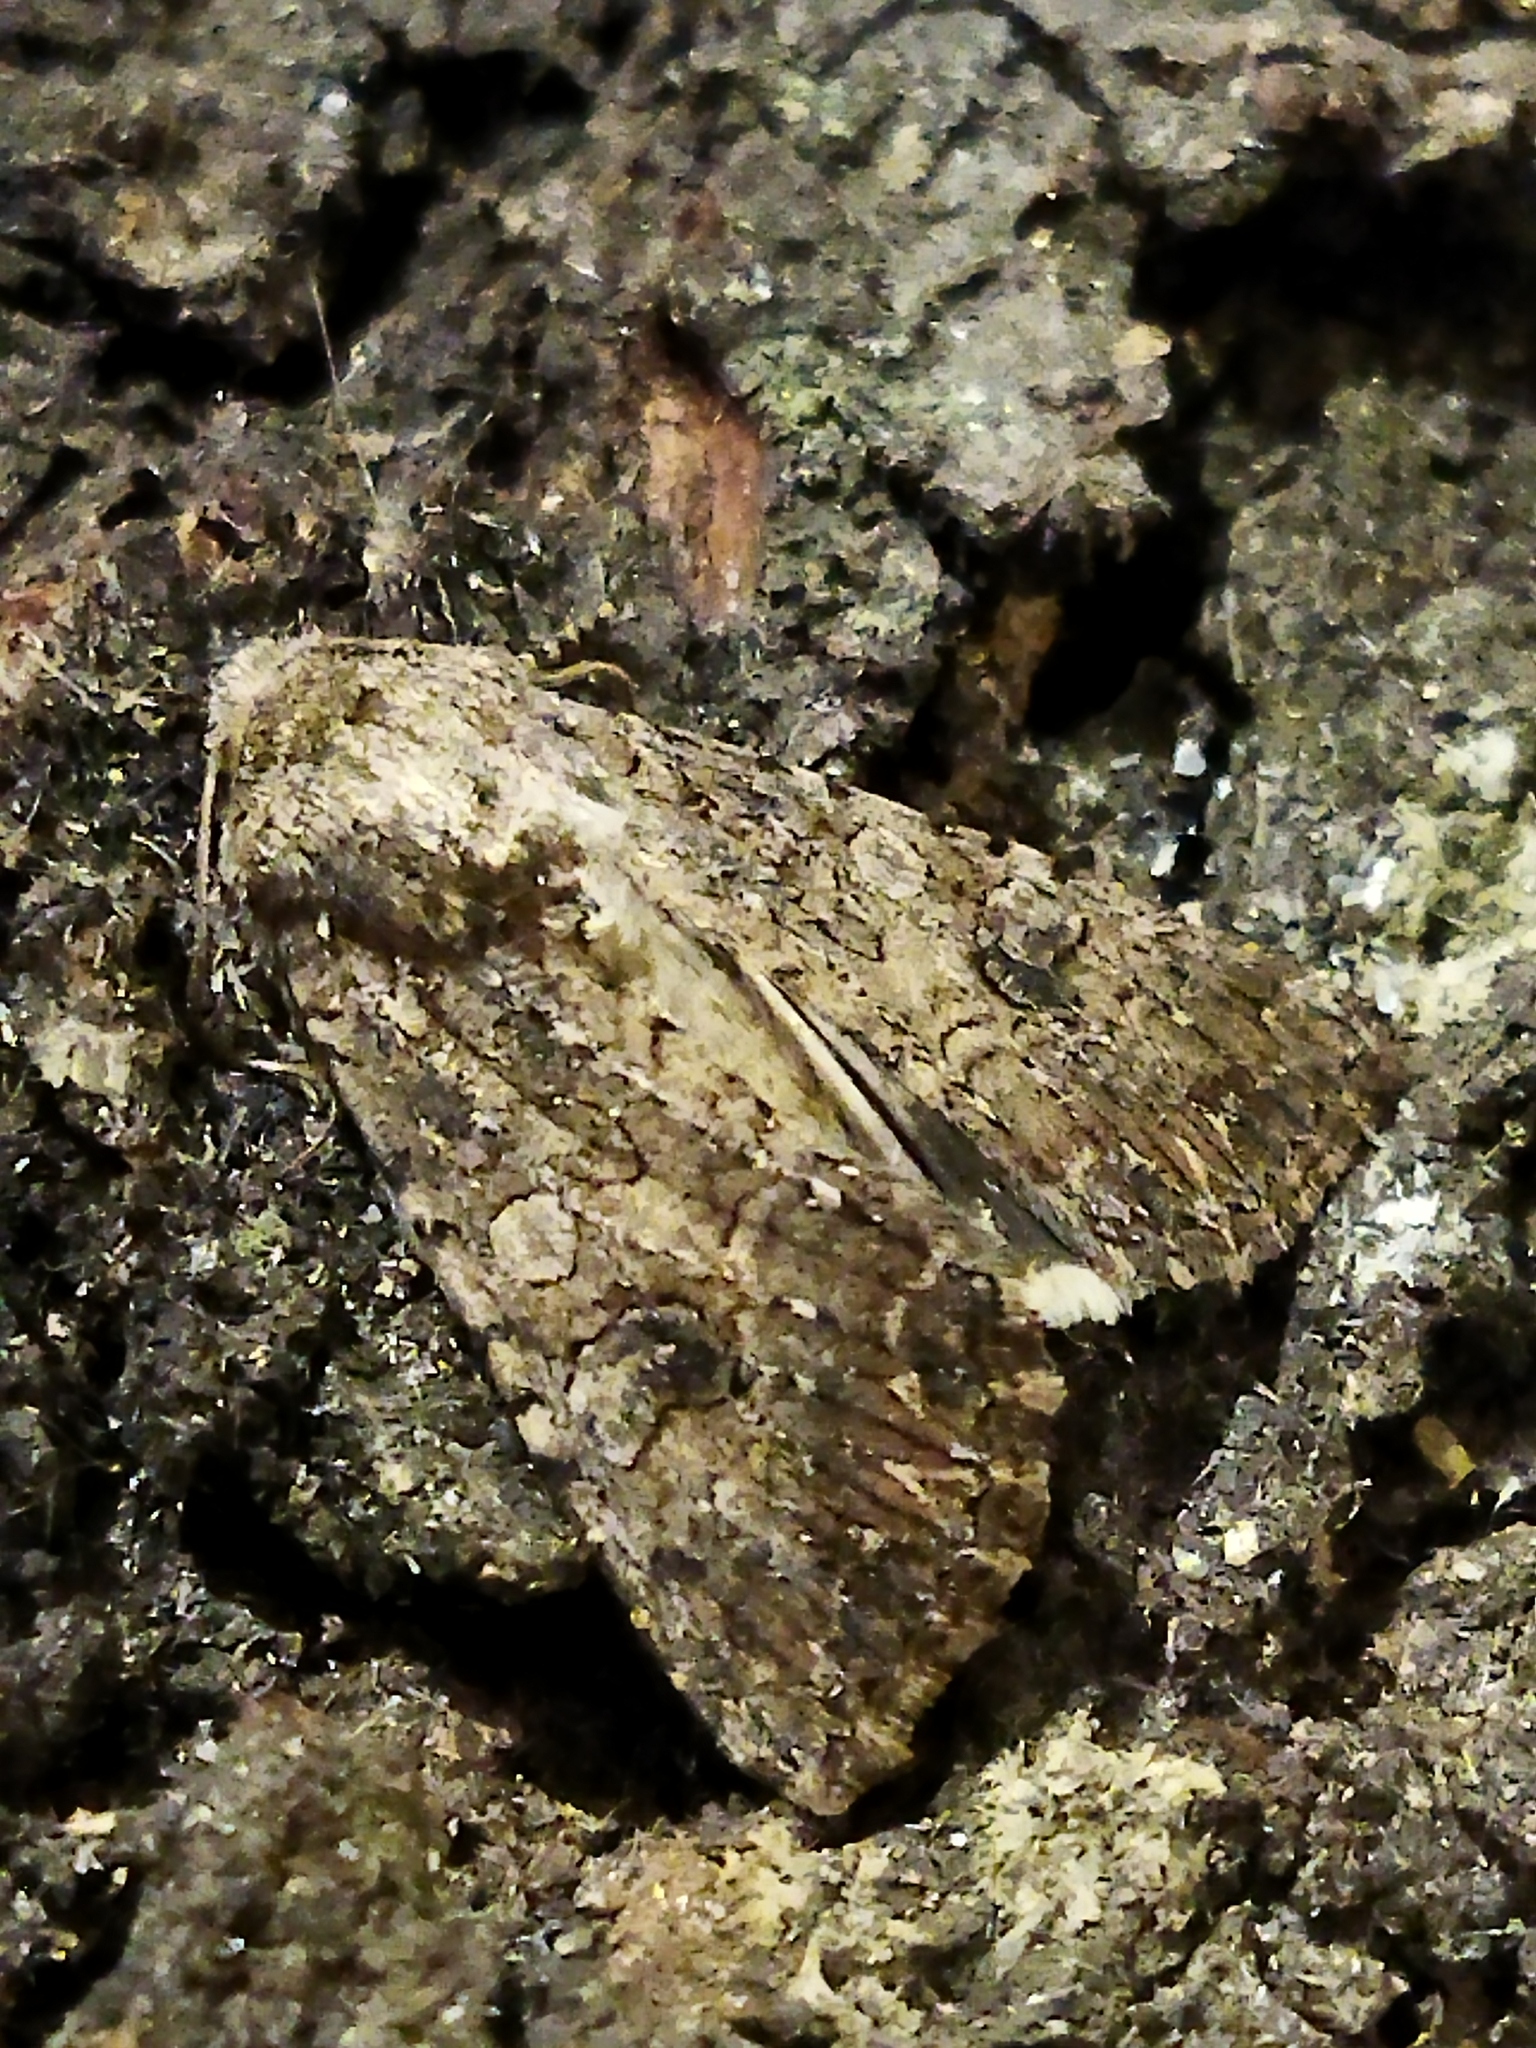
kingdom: Animalia
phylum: Arthropoda
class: Insecta
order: Lepidoptera
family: Noctuidae
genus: Anarta
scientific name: Anarta trifolii
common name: Clover cutworm moth
